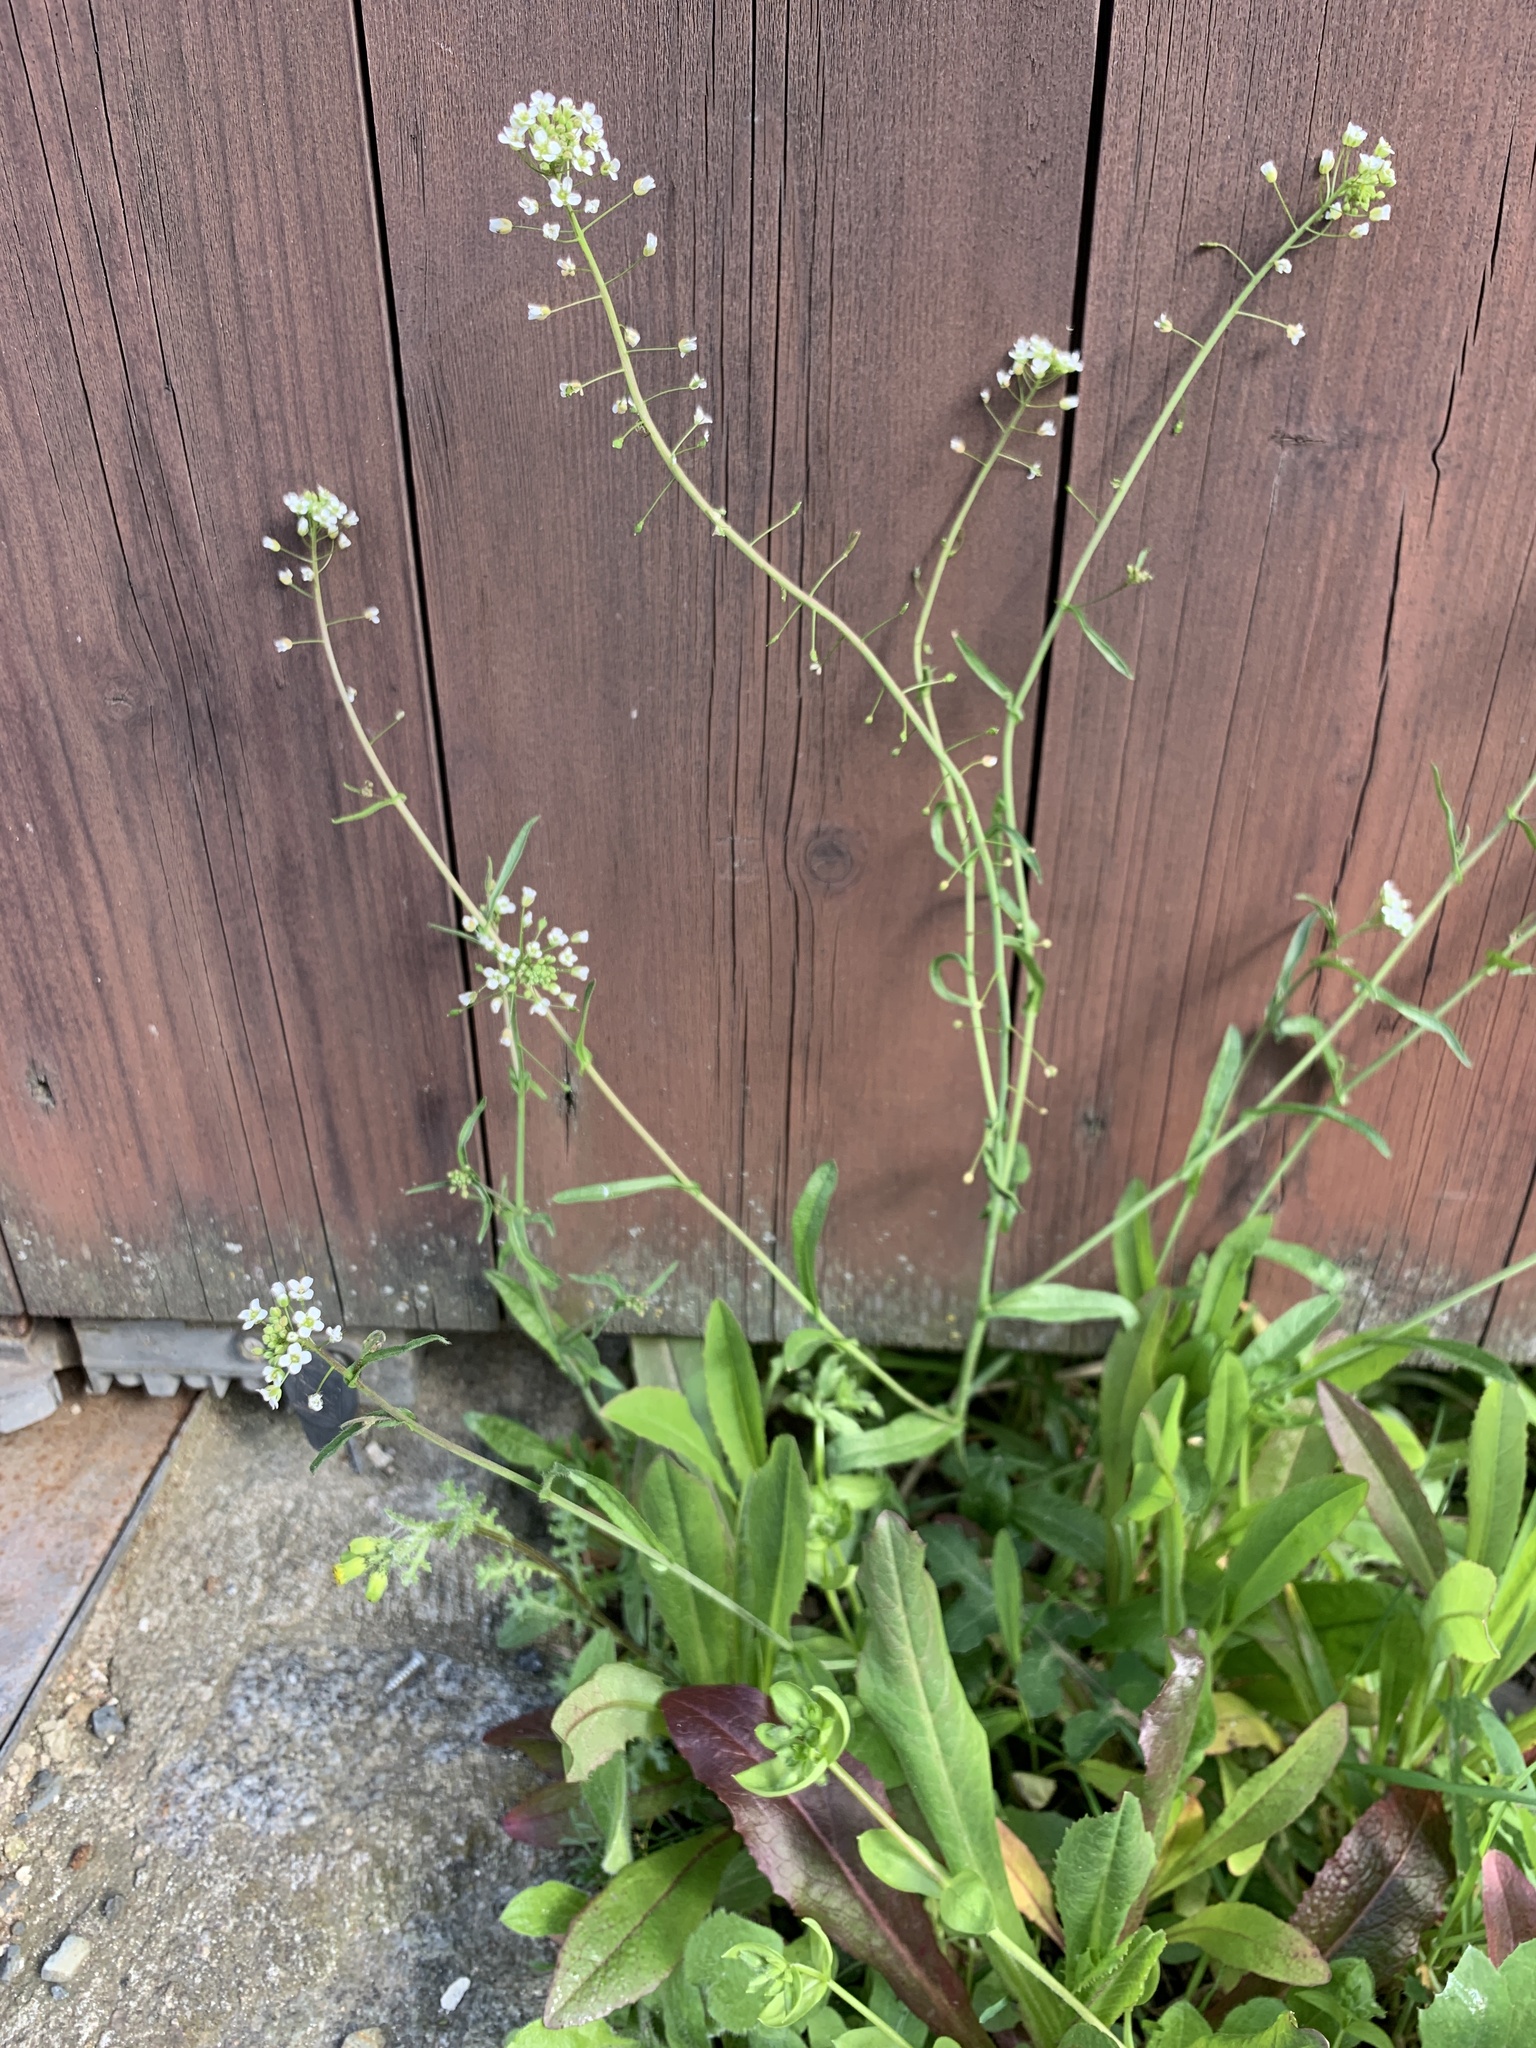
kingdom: Plantae
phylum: Tracheophyta
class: Magnoliopsida
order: Brassicales
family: Brassicaceae
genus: Capsella
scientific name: Capsella bursa-pastoris
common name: Shepherd's purse
